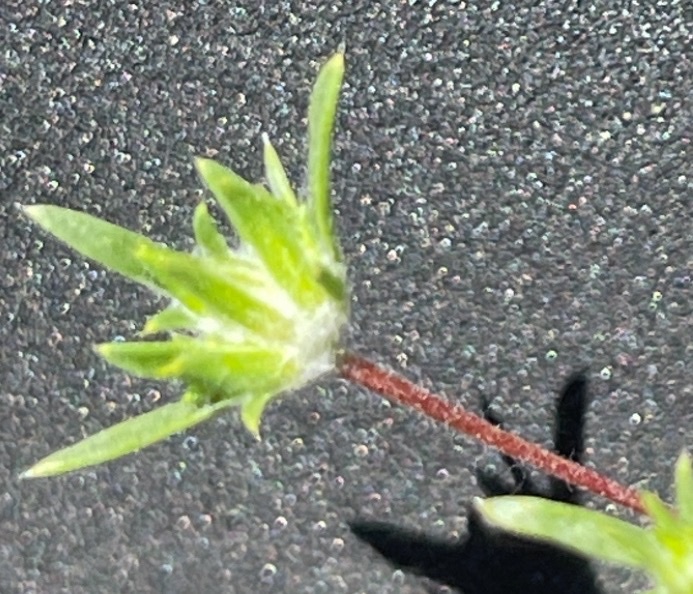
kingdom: Plantae
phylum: Tracheophyta
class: Magnoliopsida
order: Ericales
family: Polemoniaceae
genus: Eriastrum
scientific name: Eriastrum diffusum
